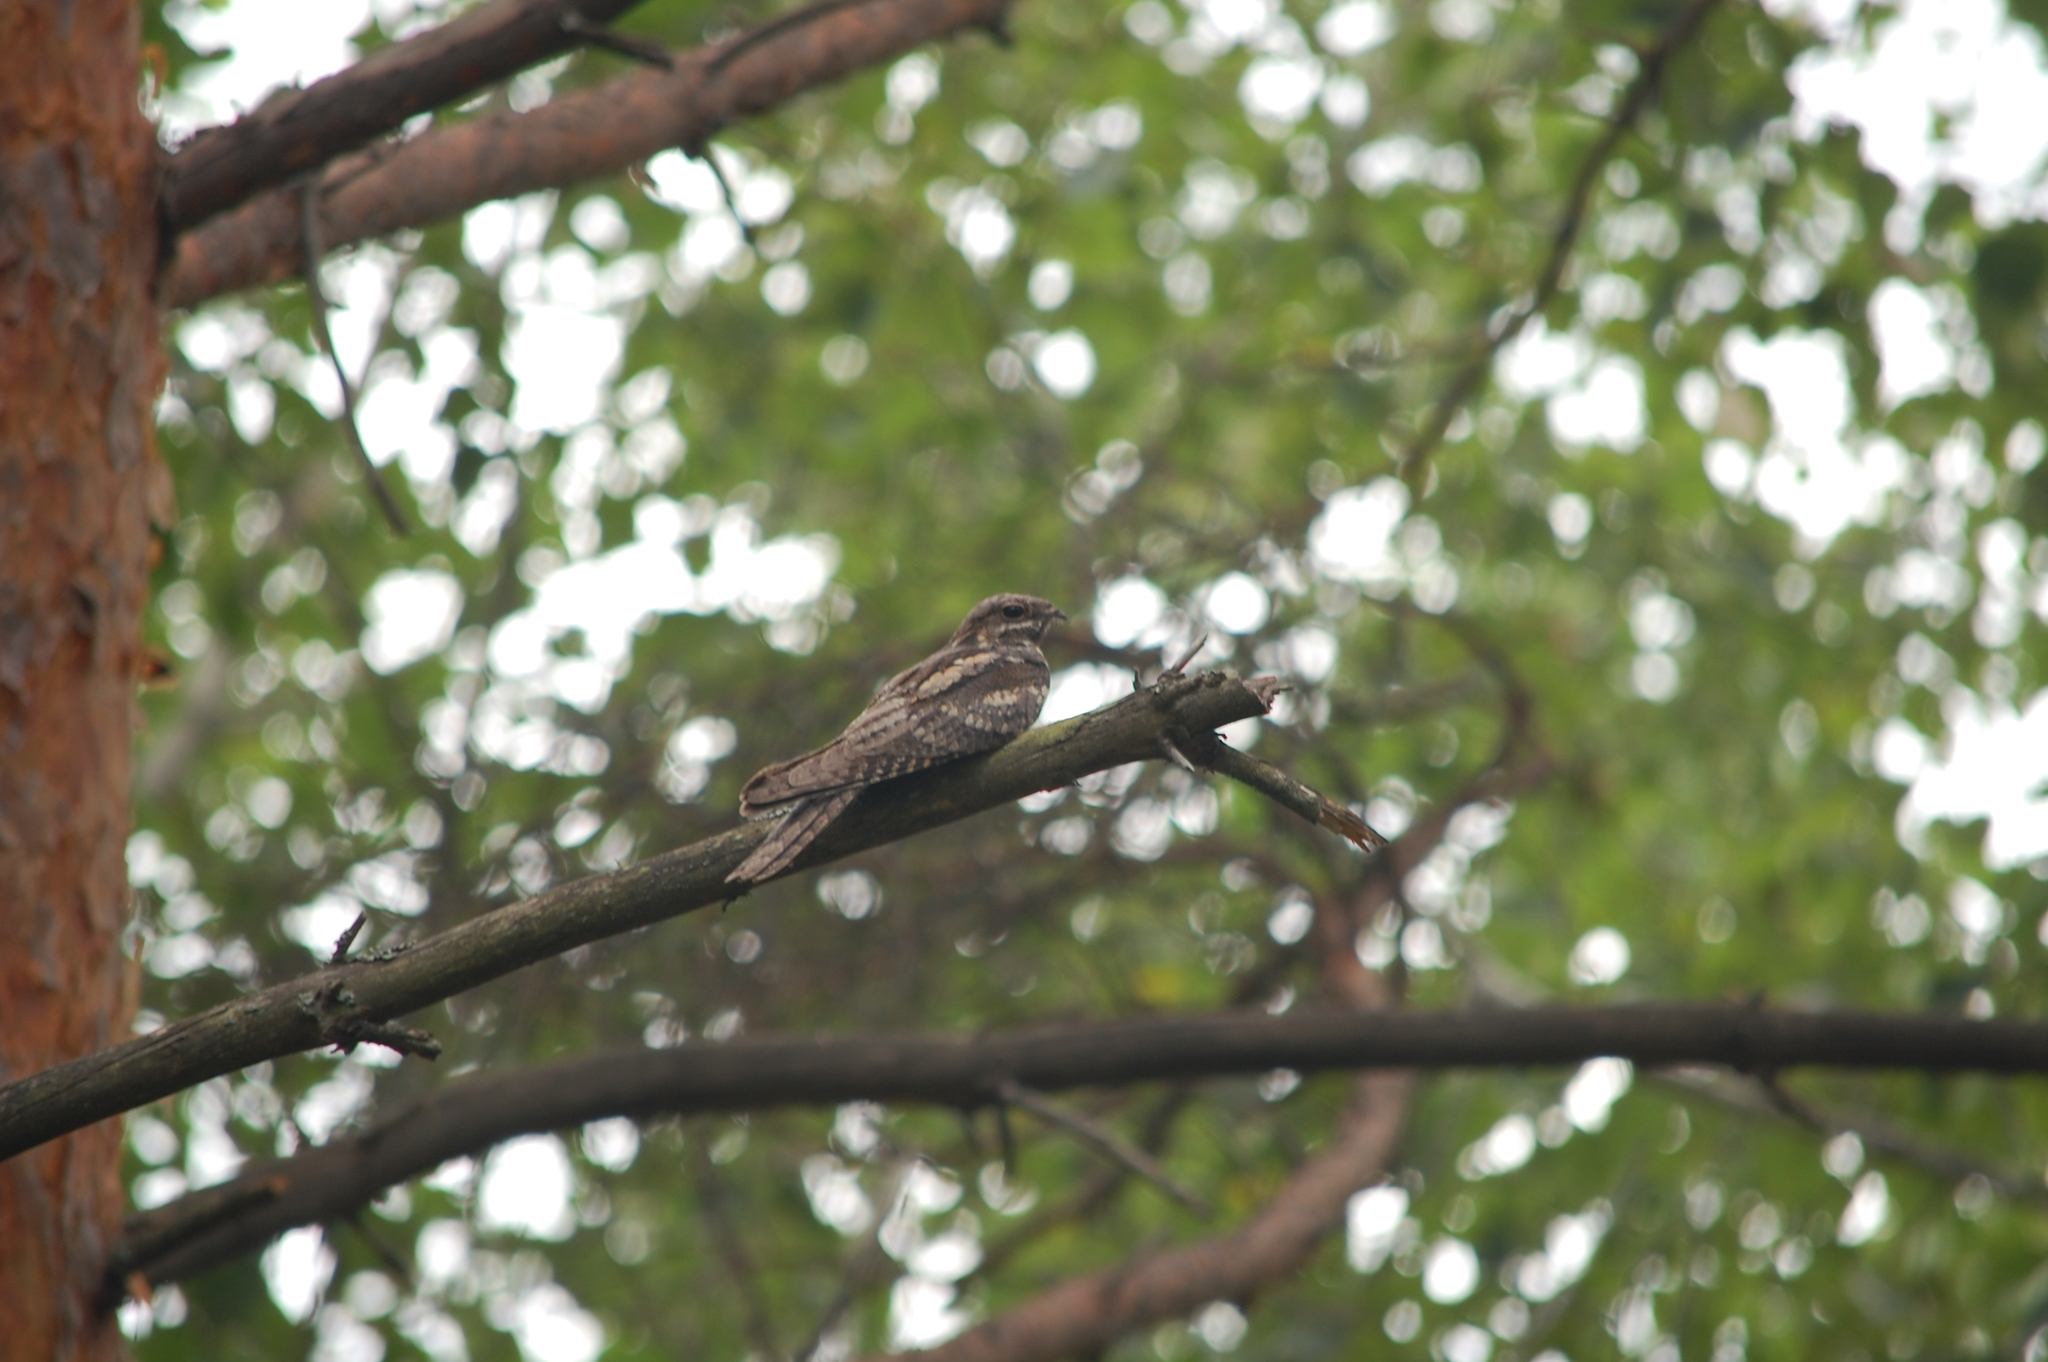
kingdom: Animalia
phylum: Chordata
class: Aves
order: Caprimulgiformes
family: Caprimulgidae
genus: Caprimulgus
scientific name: Caprimulgus europaeus
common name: European nightjar
